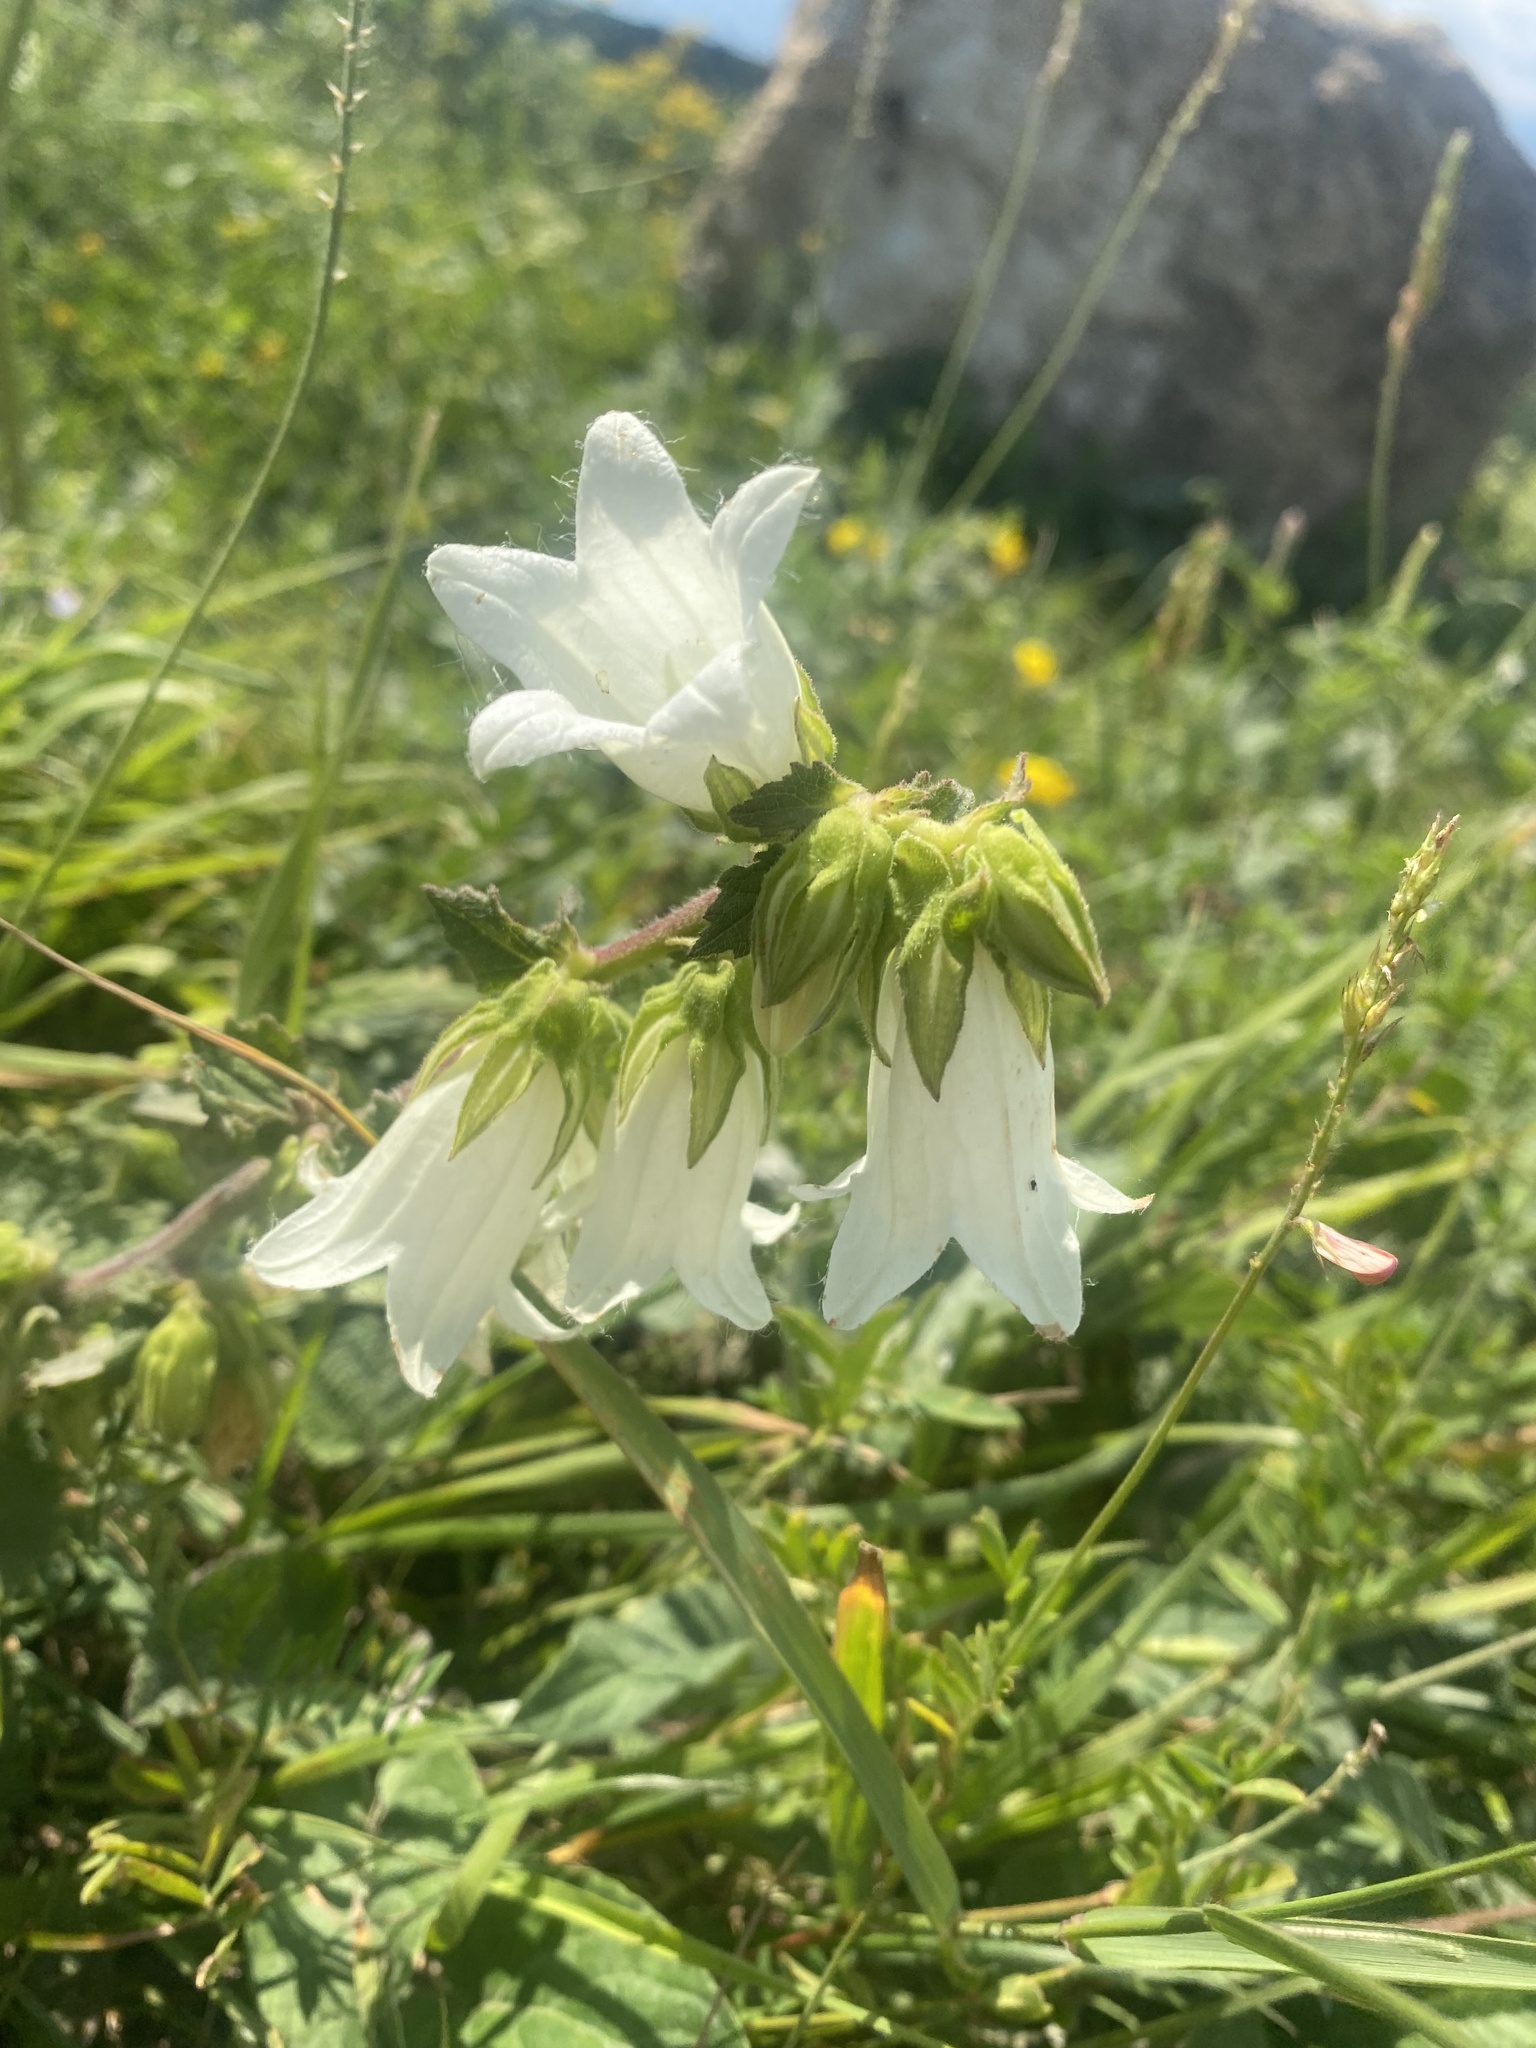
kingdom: Plantae
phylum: Tracheophyta
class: Magnoliopsida
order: Asterales
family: Campanulaceae
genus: Campanula
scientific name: Campanula alliariifolia
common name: Cornish bellflower
